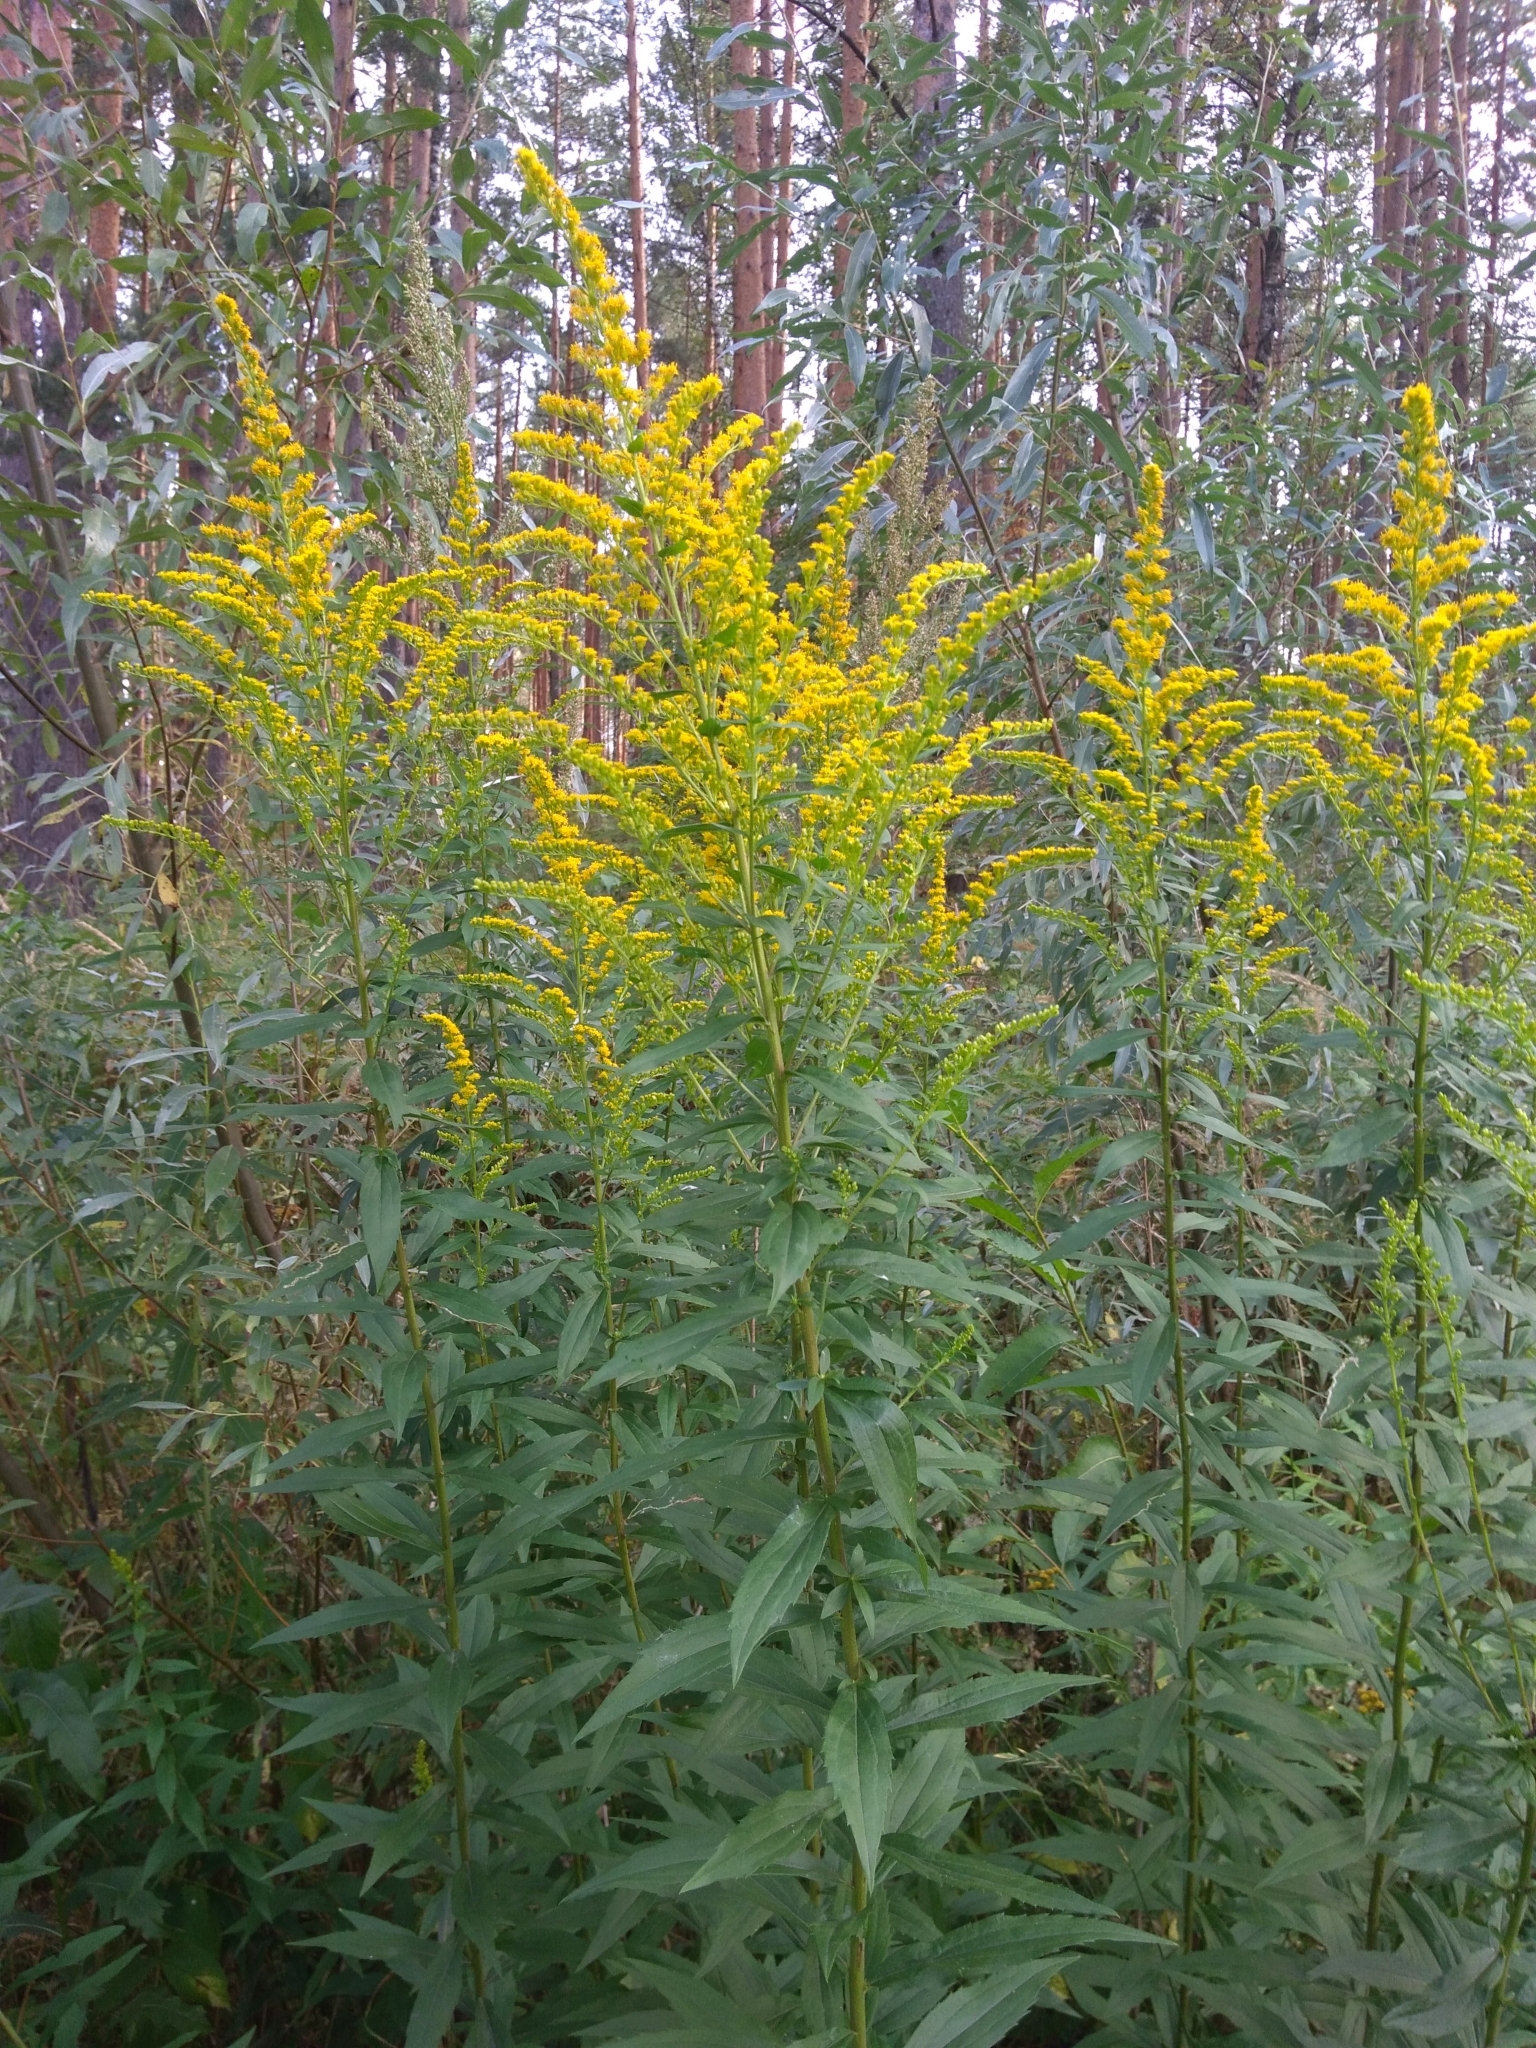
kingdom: Plantae
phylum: Tracheophyta
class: Magnoliopsida
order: Asterales
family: Asteraceae
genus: Solidago
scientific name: Solidago canadensis
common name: Canada goldenrod
